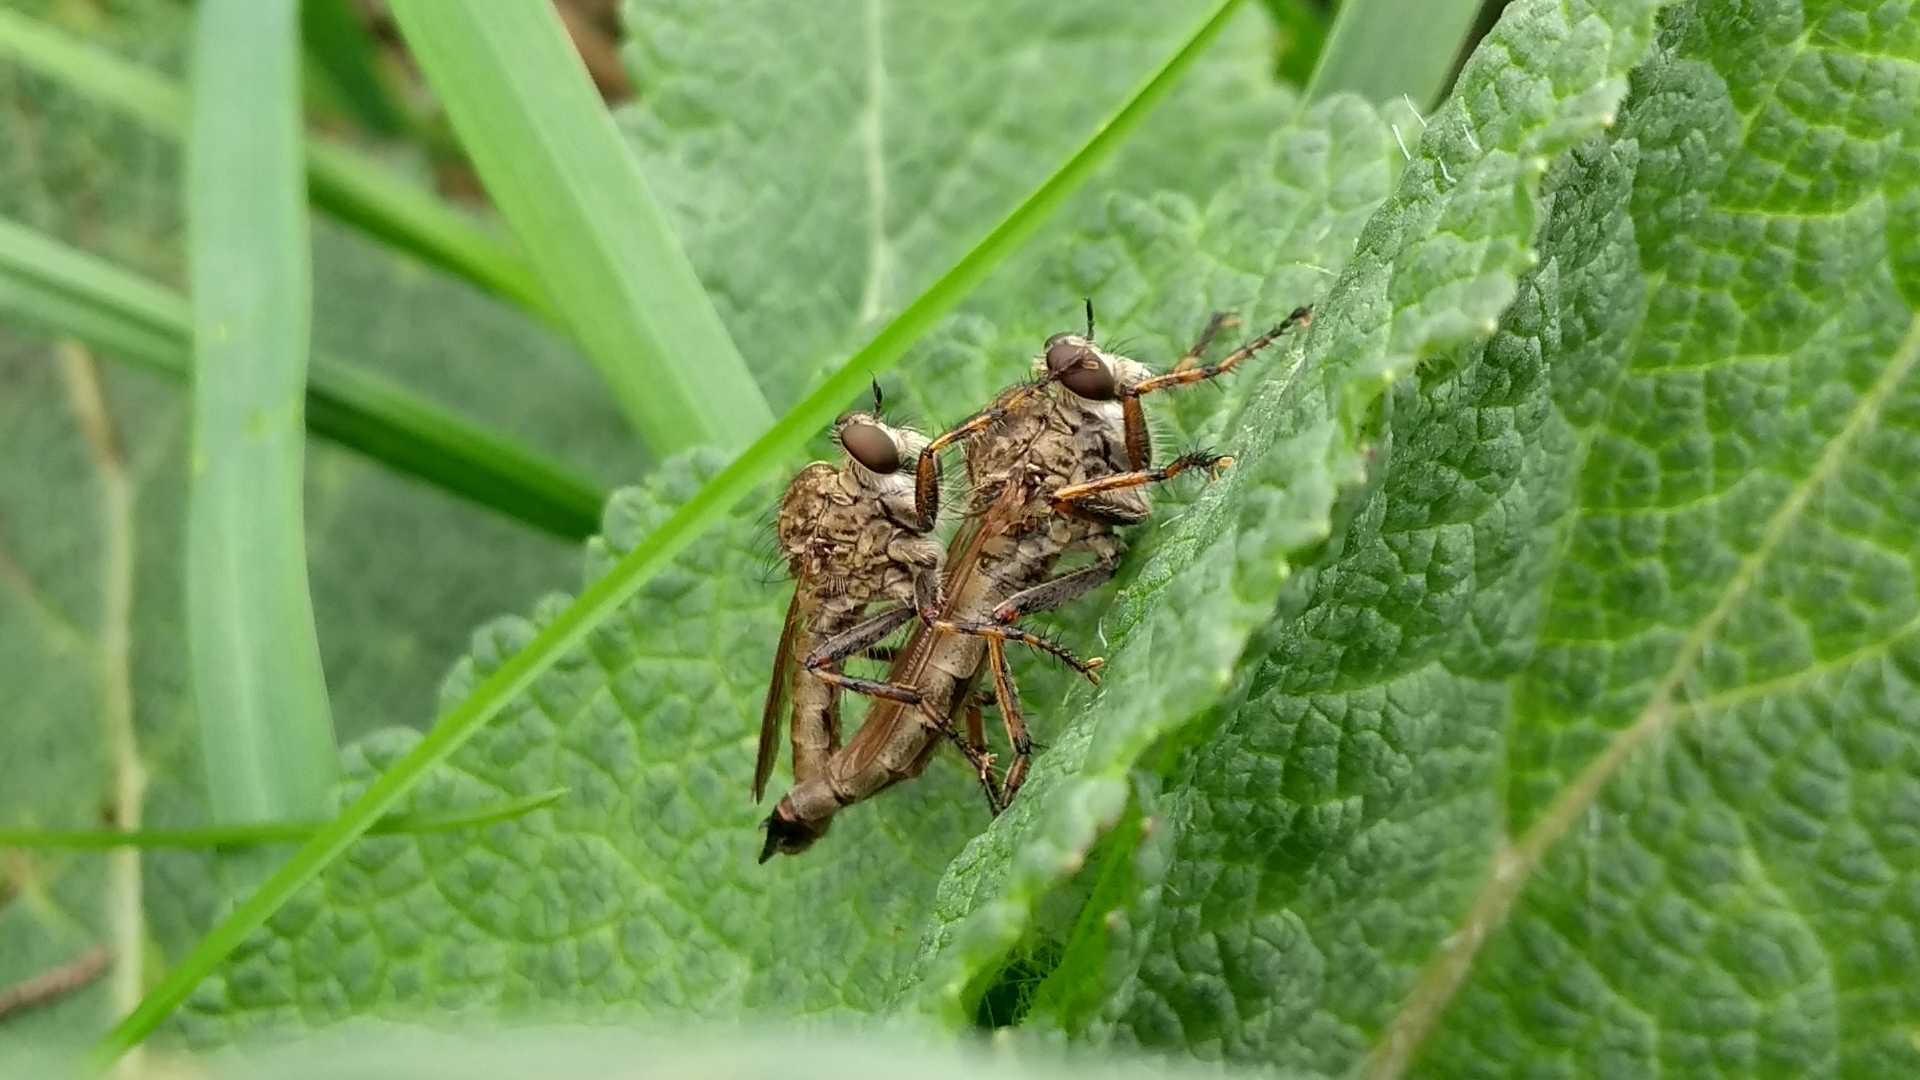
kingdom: Animalia
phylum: Arthropoda
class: Insecta
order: Diptera
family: Asilidae
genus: Epitriptus
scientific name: Epitriptus cingulatus
